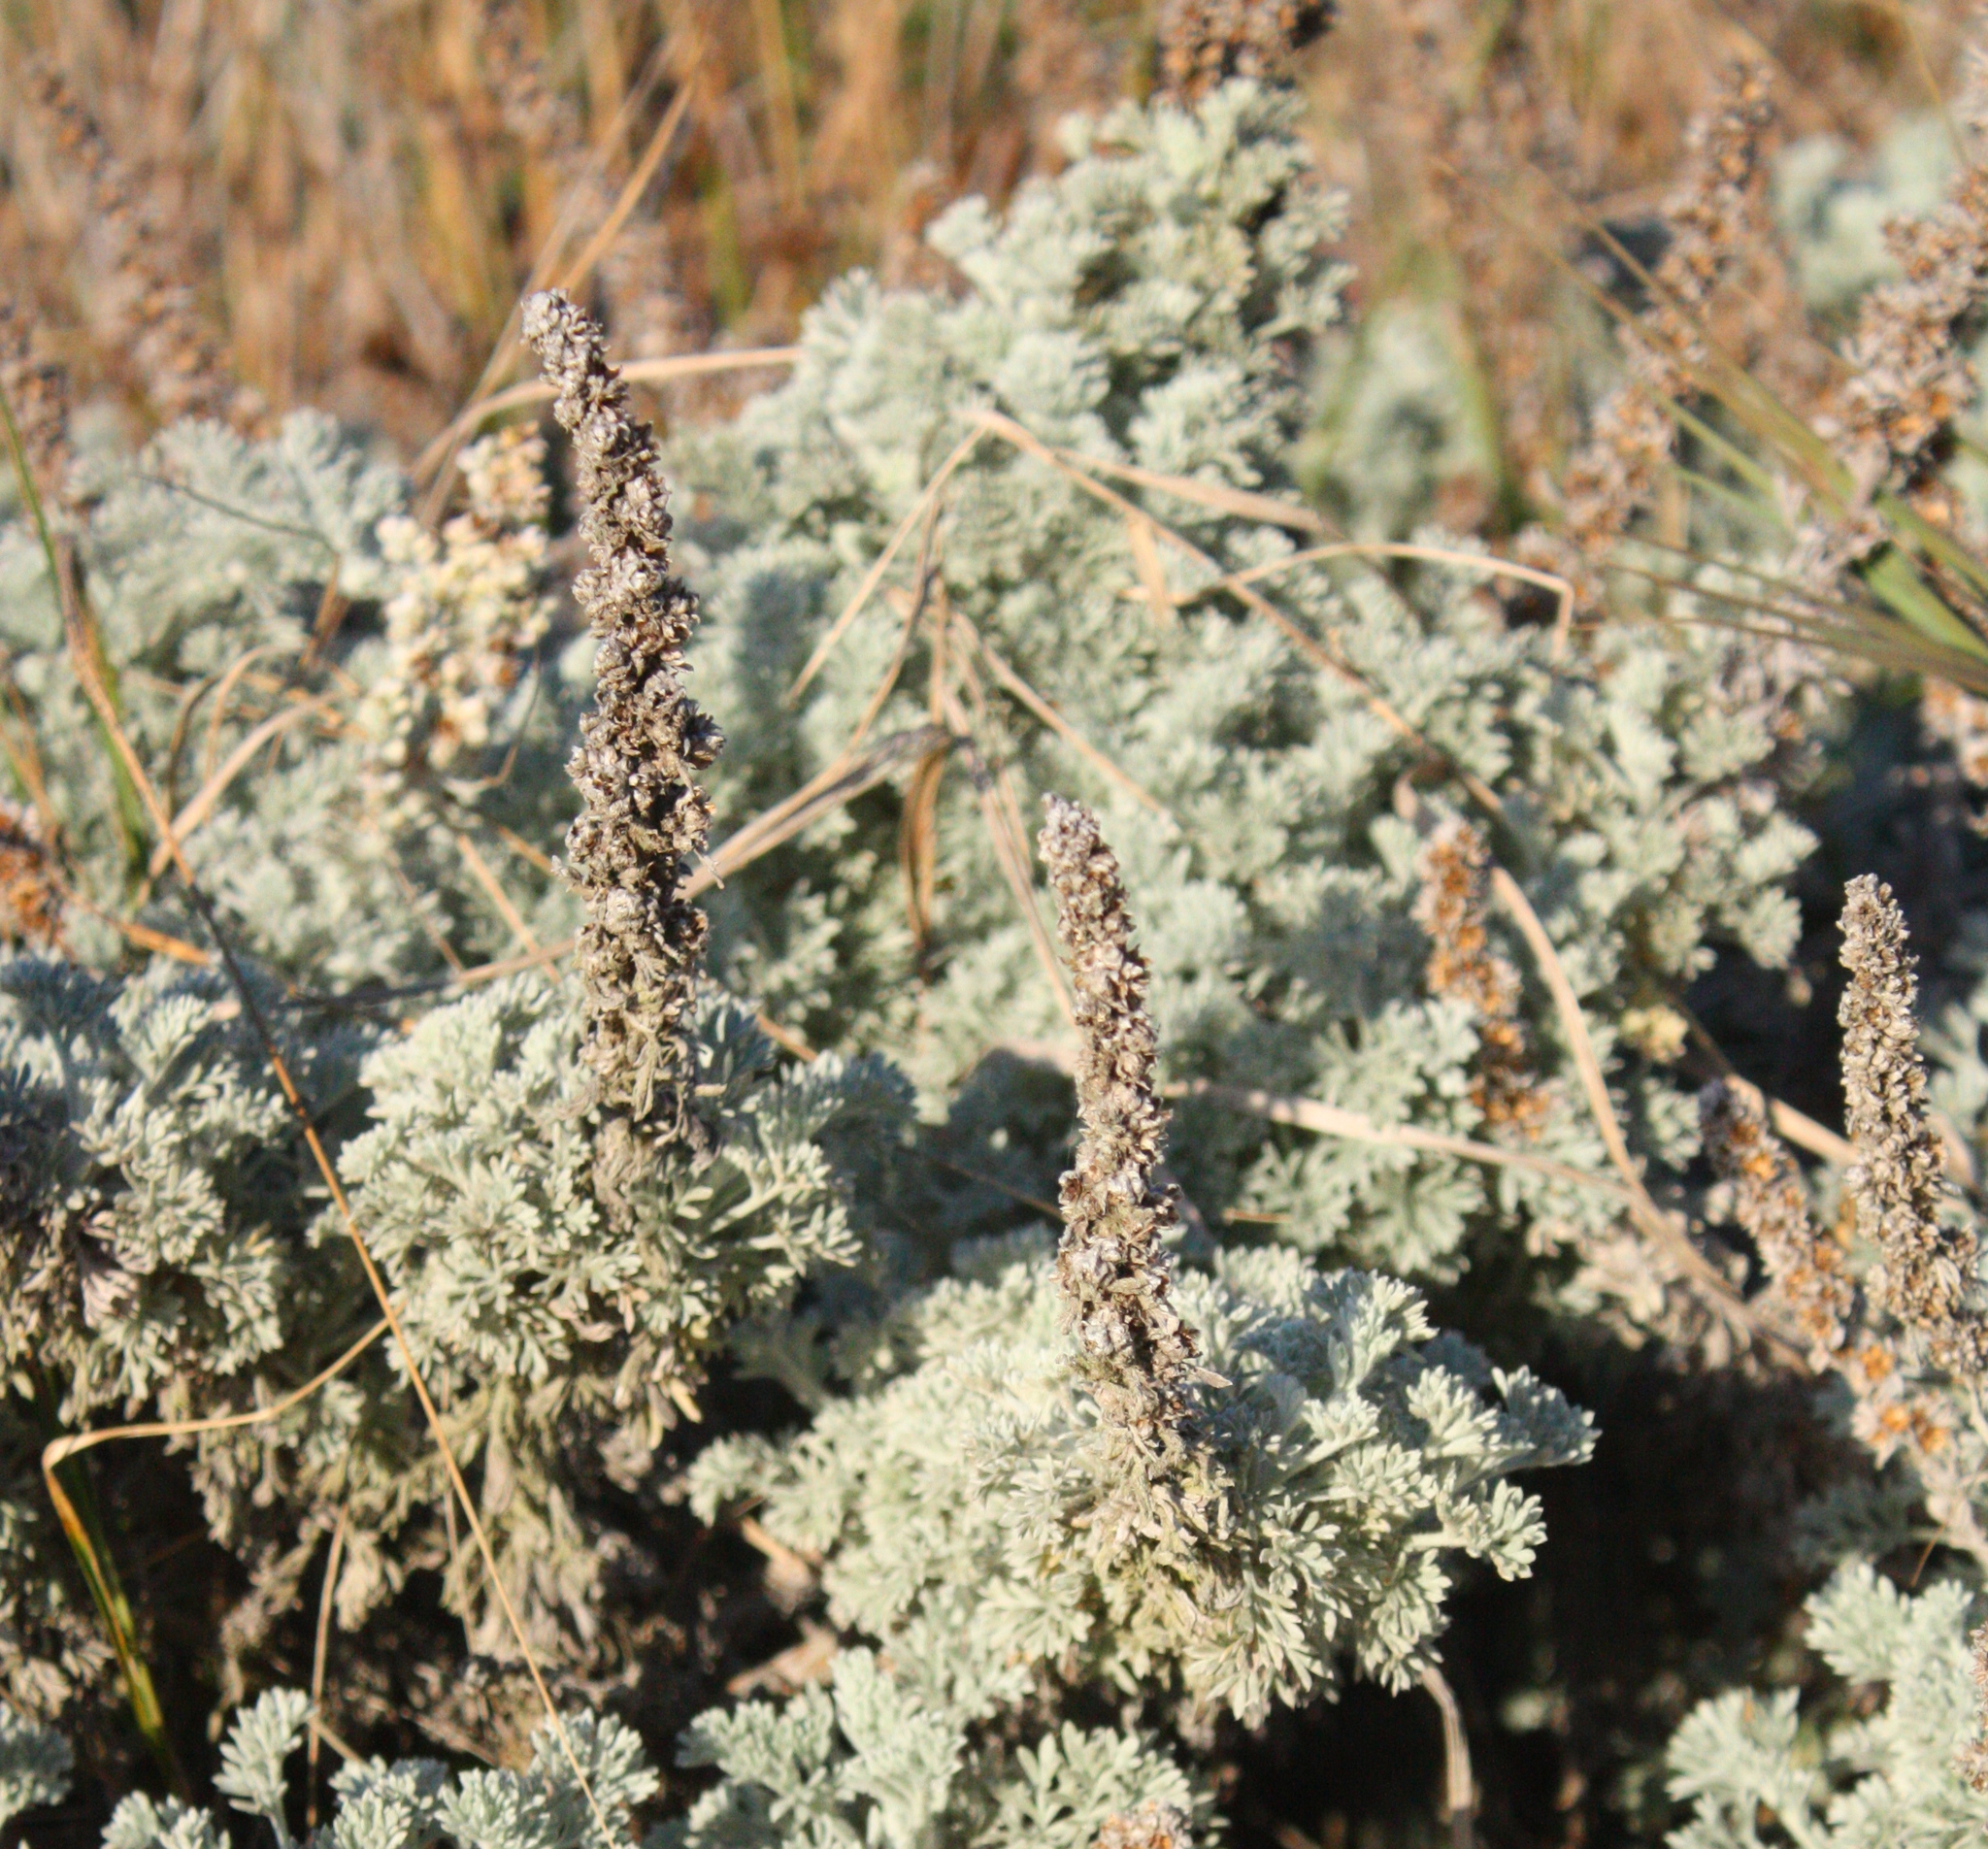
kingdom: Plantae
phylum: Tracheophyta
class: Magnoliopsida
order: Asterales
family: Asteraceae
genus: Artemisia
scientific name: Artemisia pycnocephala
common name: Coastal sagewort
